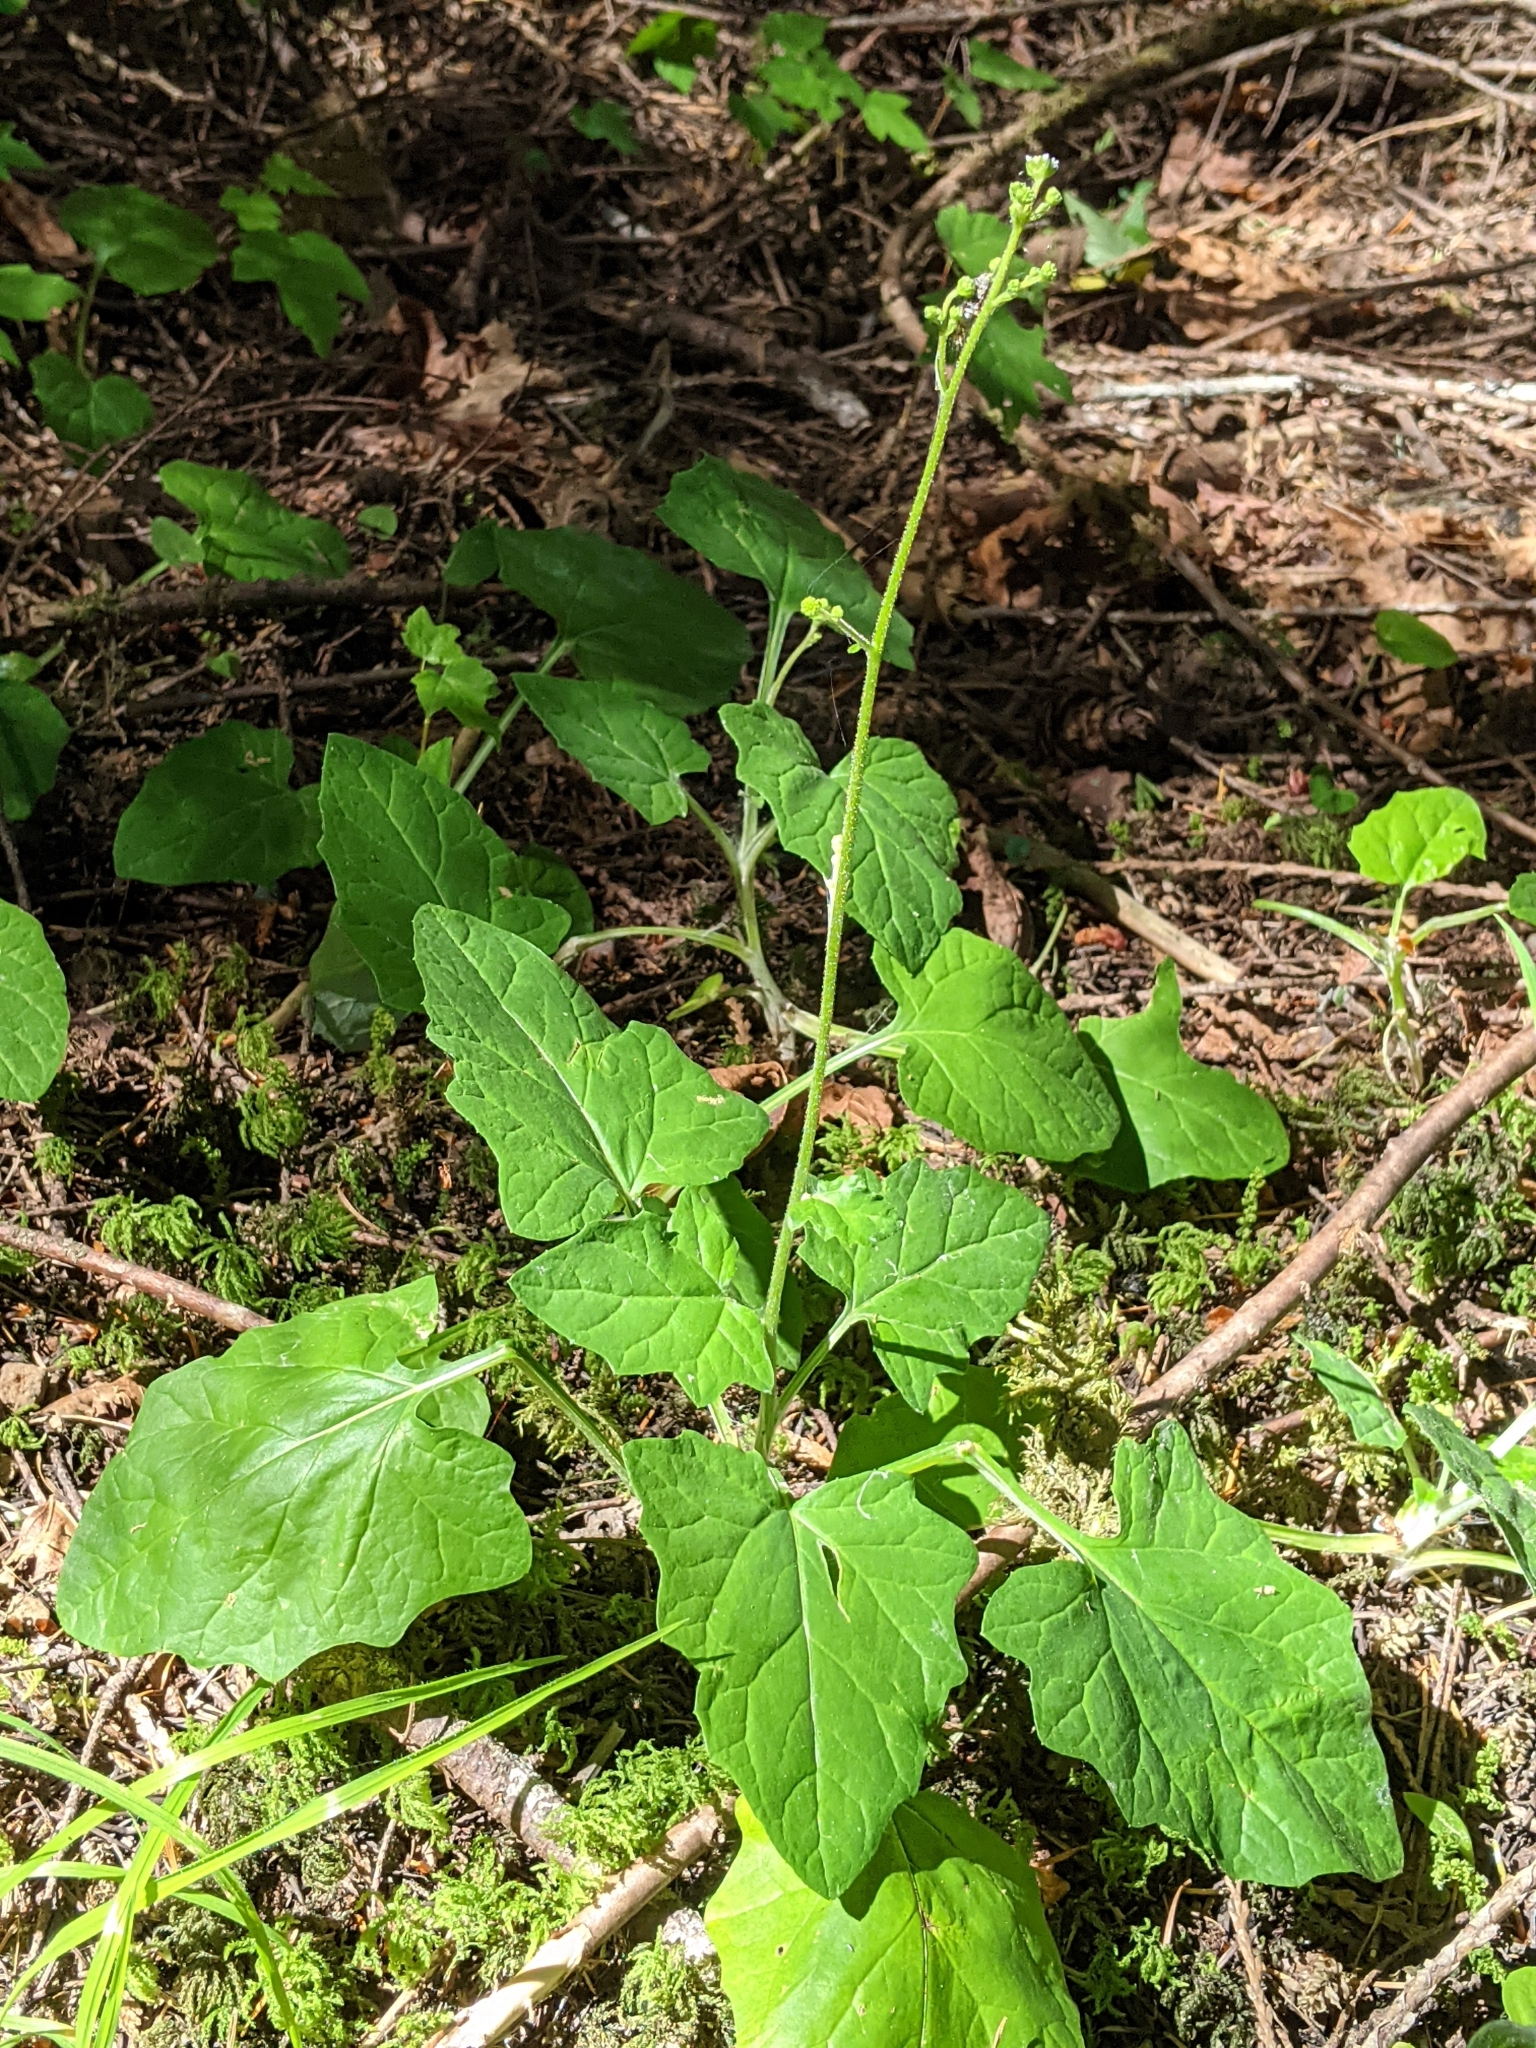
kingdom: Plantae
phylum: Tracheophyta
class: Magnoliopsida
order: Asterales
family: Asteraceae
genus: Adenocaulon
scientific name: Adenocaulon bicolor
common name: Trailplant
